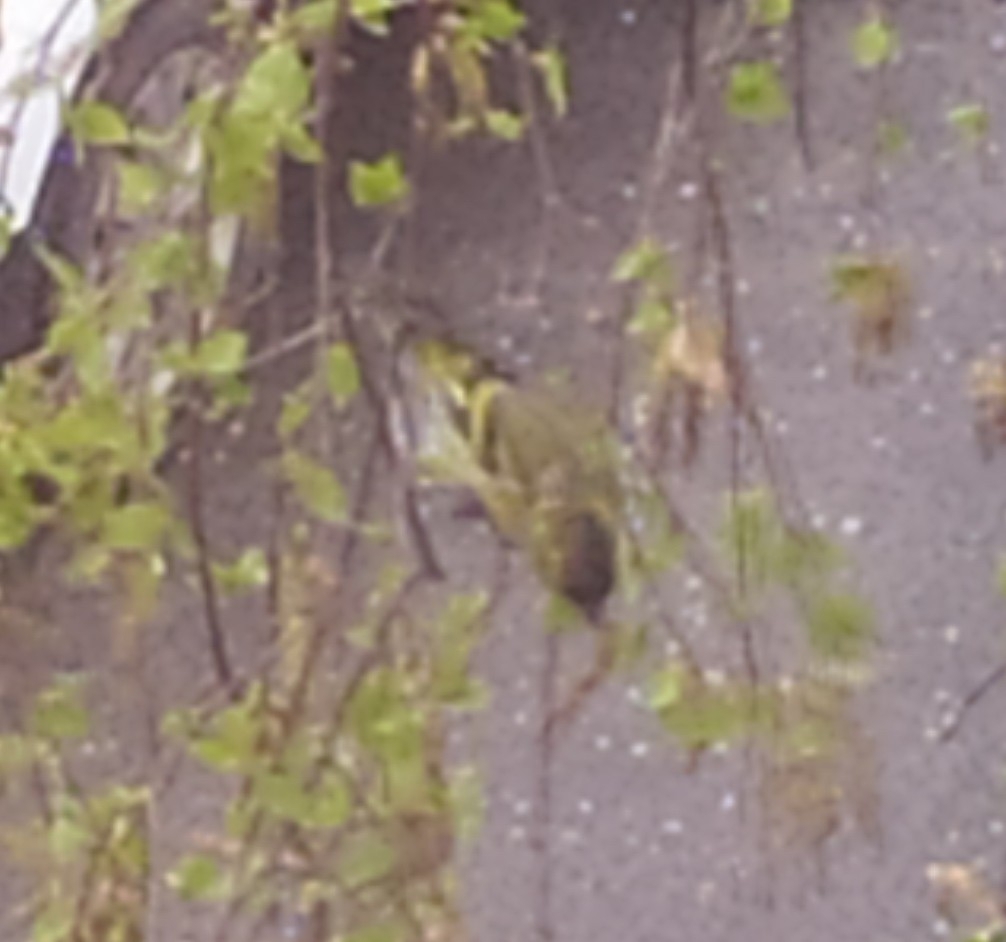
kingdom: Animalia
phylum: Chordata
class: Aves
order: Passeriformes
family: Fringillidae
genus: Spinus
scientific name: Spinus spinus
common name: Eurasian siskin
